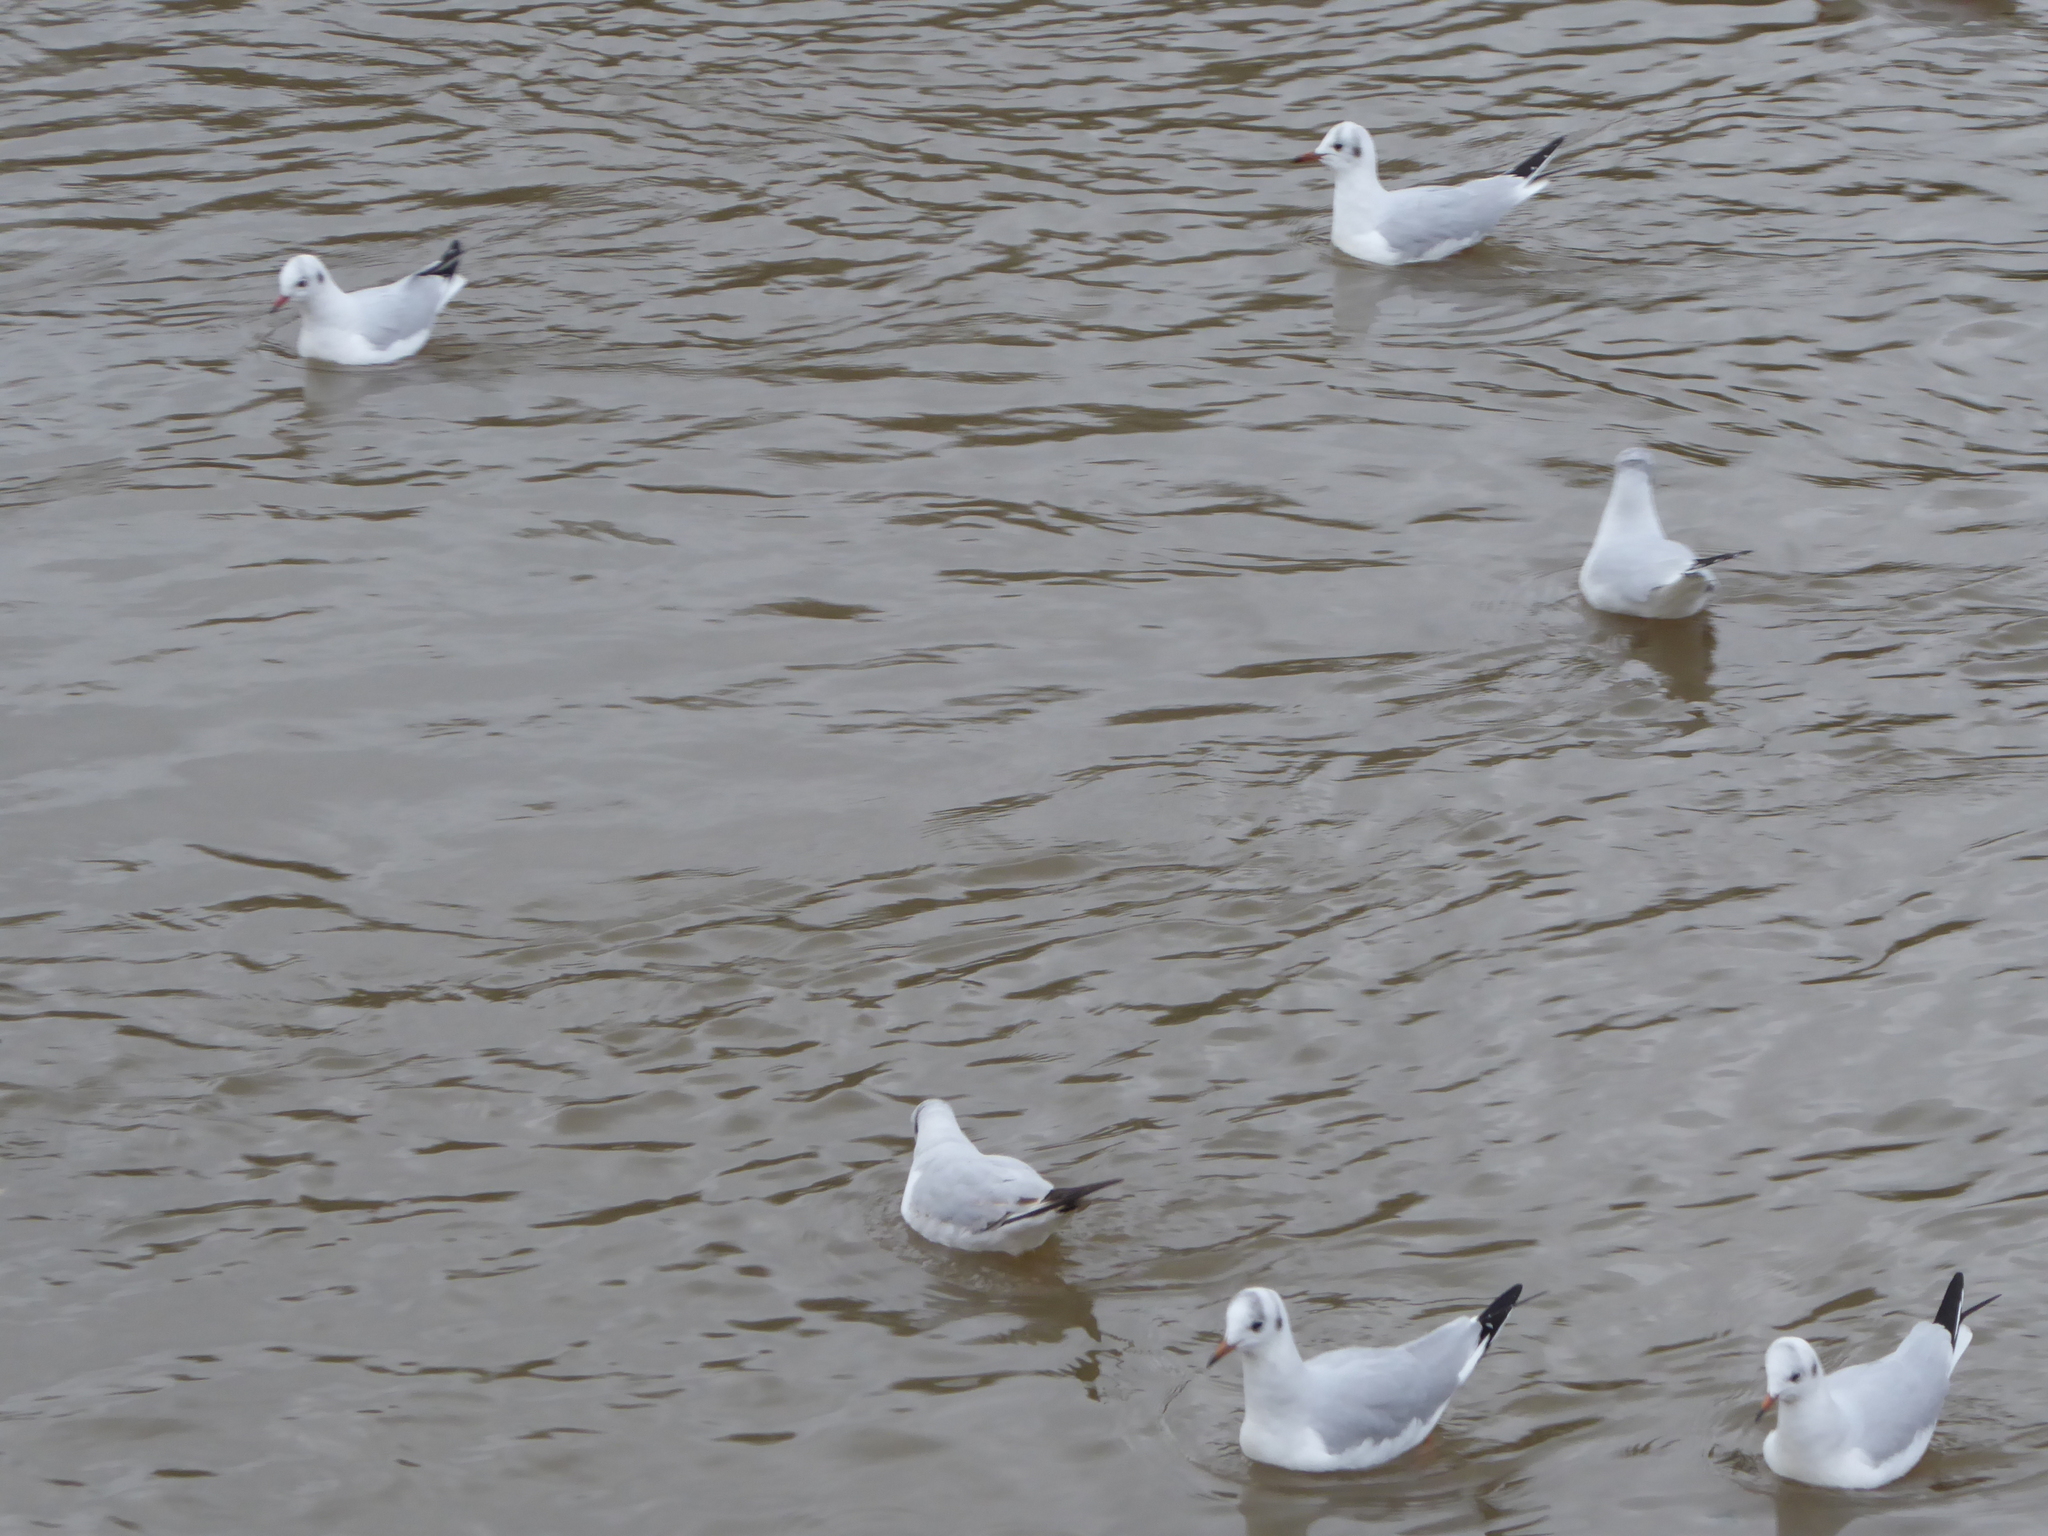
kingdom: Animalia
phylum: Chordata
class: Aves
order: Charadriiformes
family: Laridae
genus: Chroicocephalus
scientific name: Chroicocephalus ridibundus
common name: Black-headed gull
